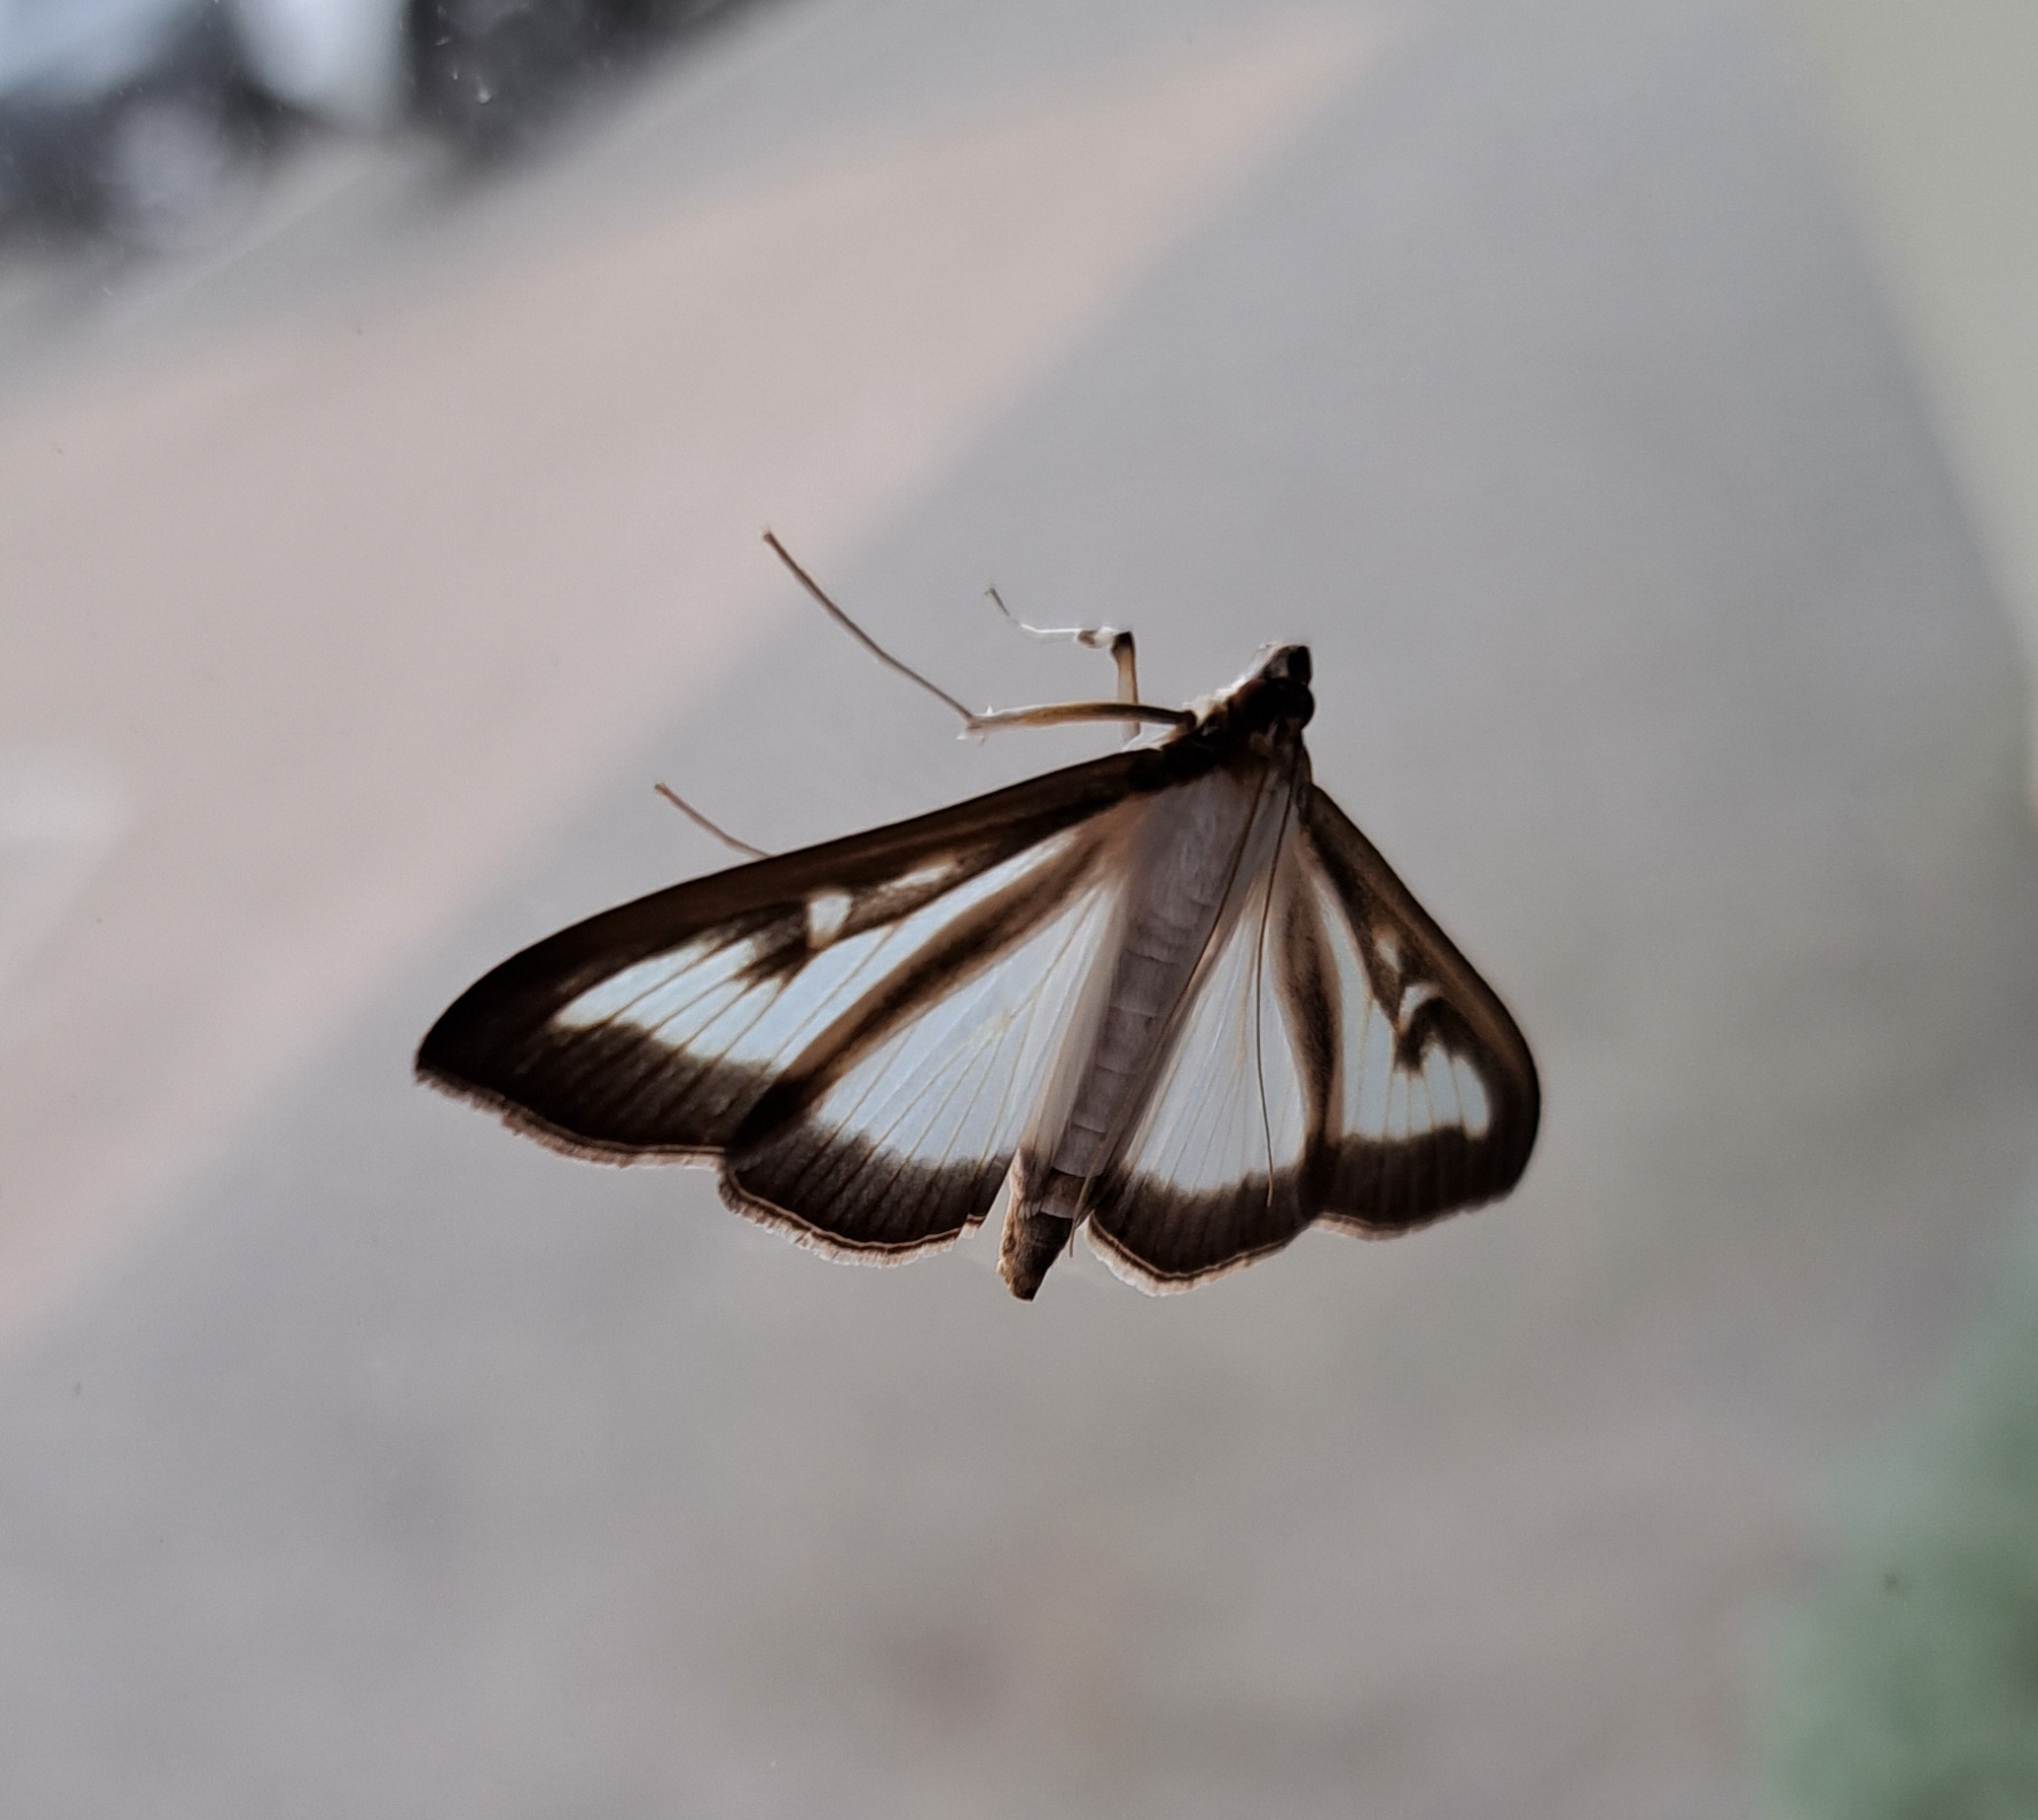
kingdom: Animalia
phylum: Arthropoda
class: Insecta
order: Lepidoptera
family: Crambidae
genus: Cydalima
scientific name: Cydalima perspectalis
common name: Box tree moth
